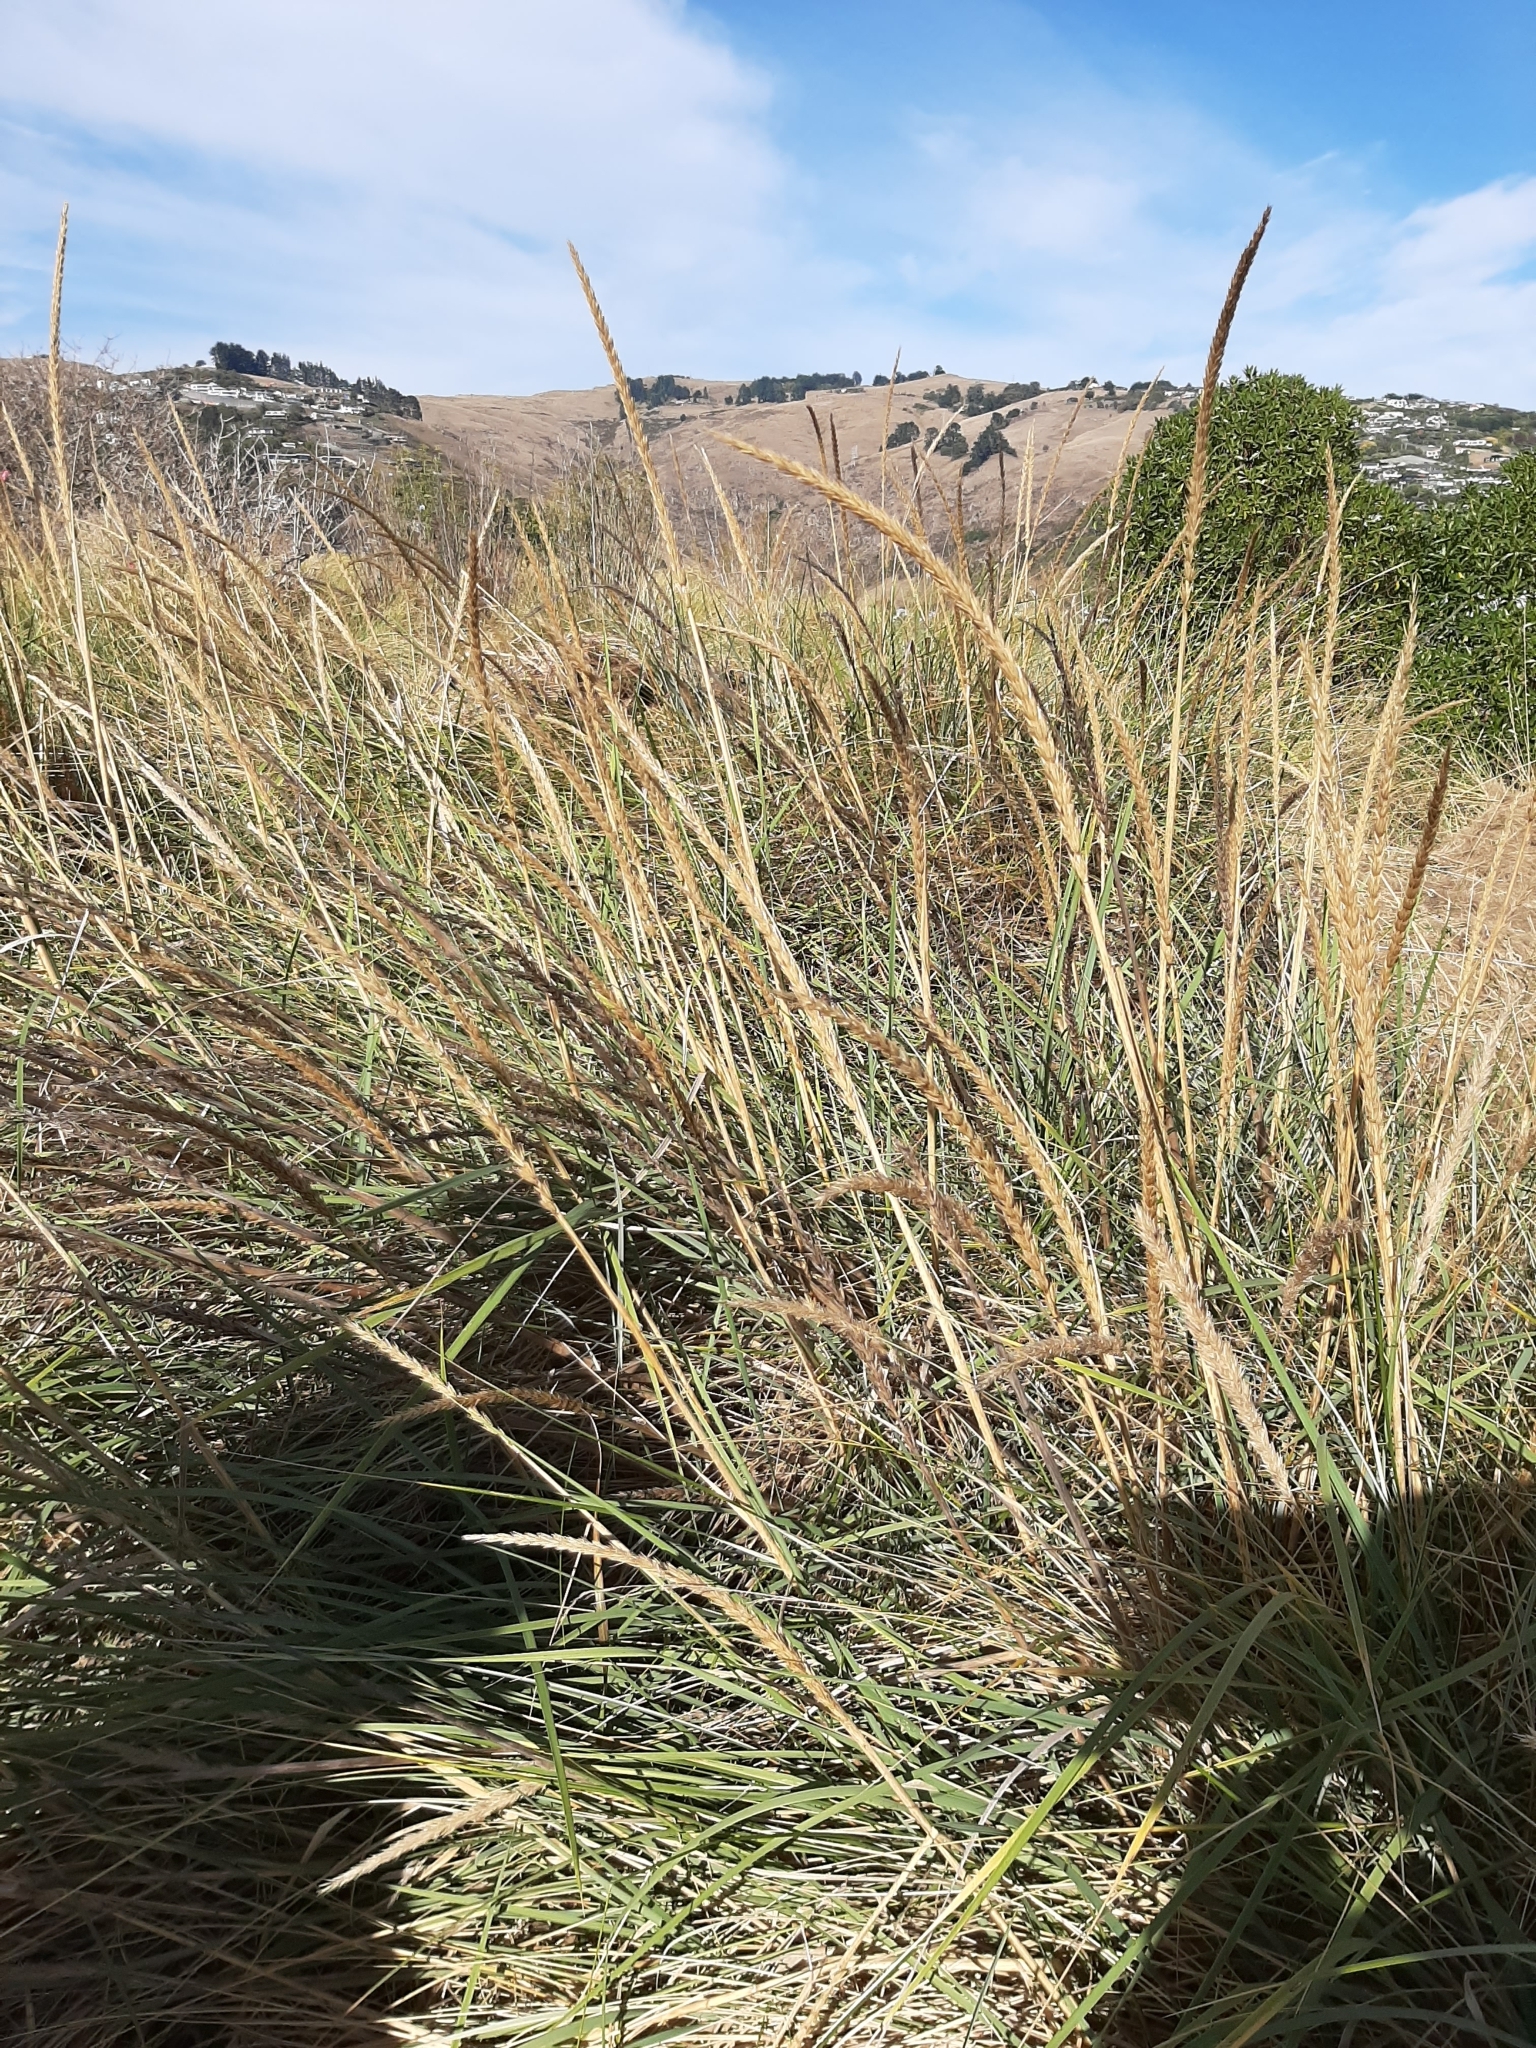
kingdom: Plantae
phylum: Tracheophyta
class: Liliopsida
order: Poales
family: Poaceae
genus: Leymus
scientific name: Leymus racemosus
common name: Mammoth wildrye
